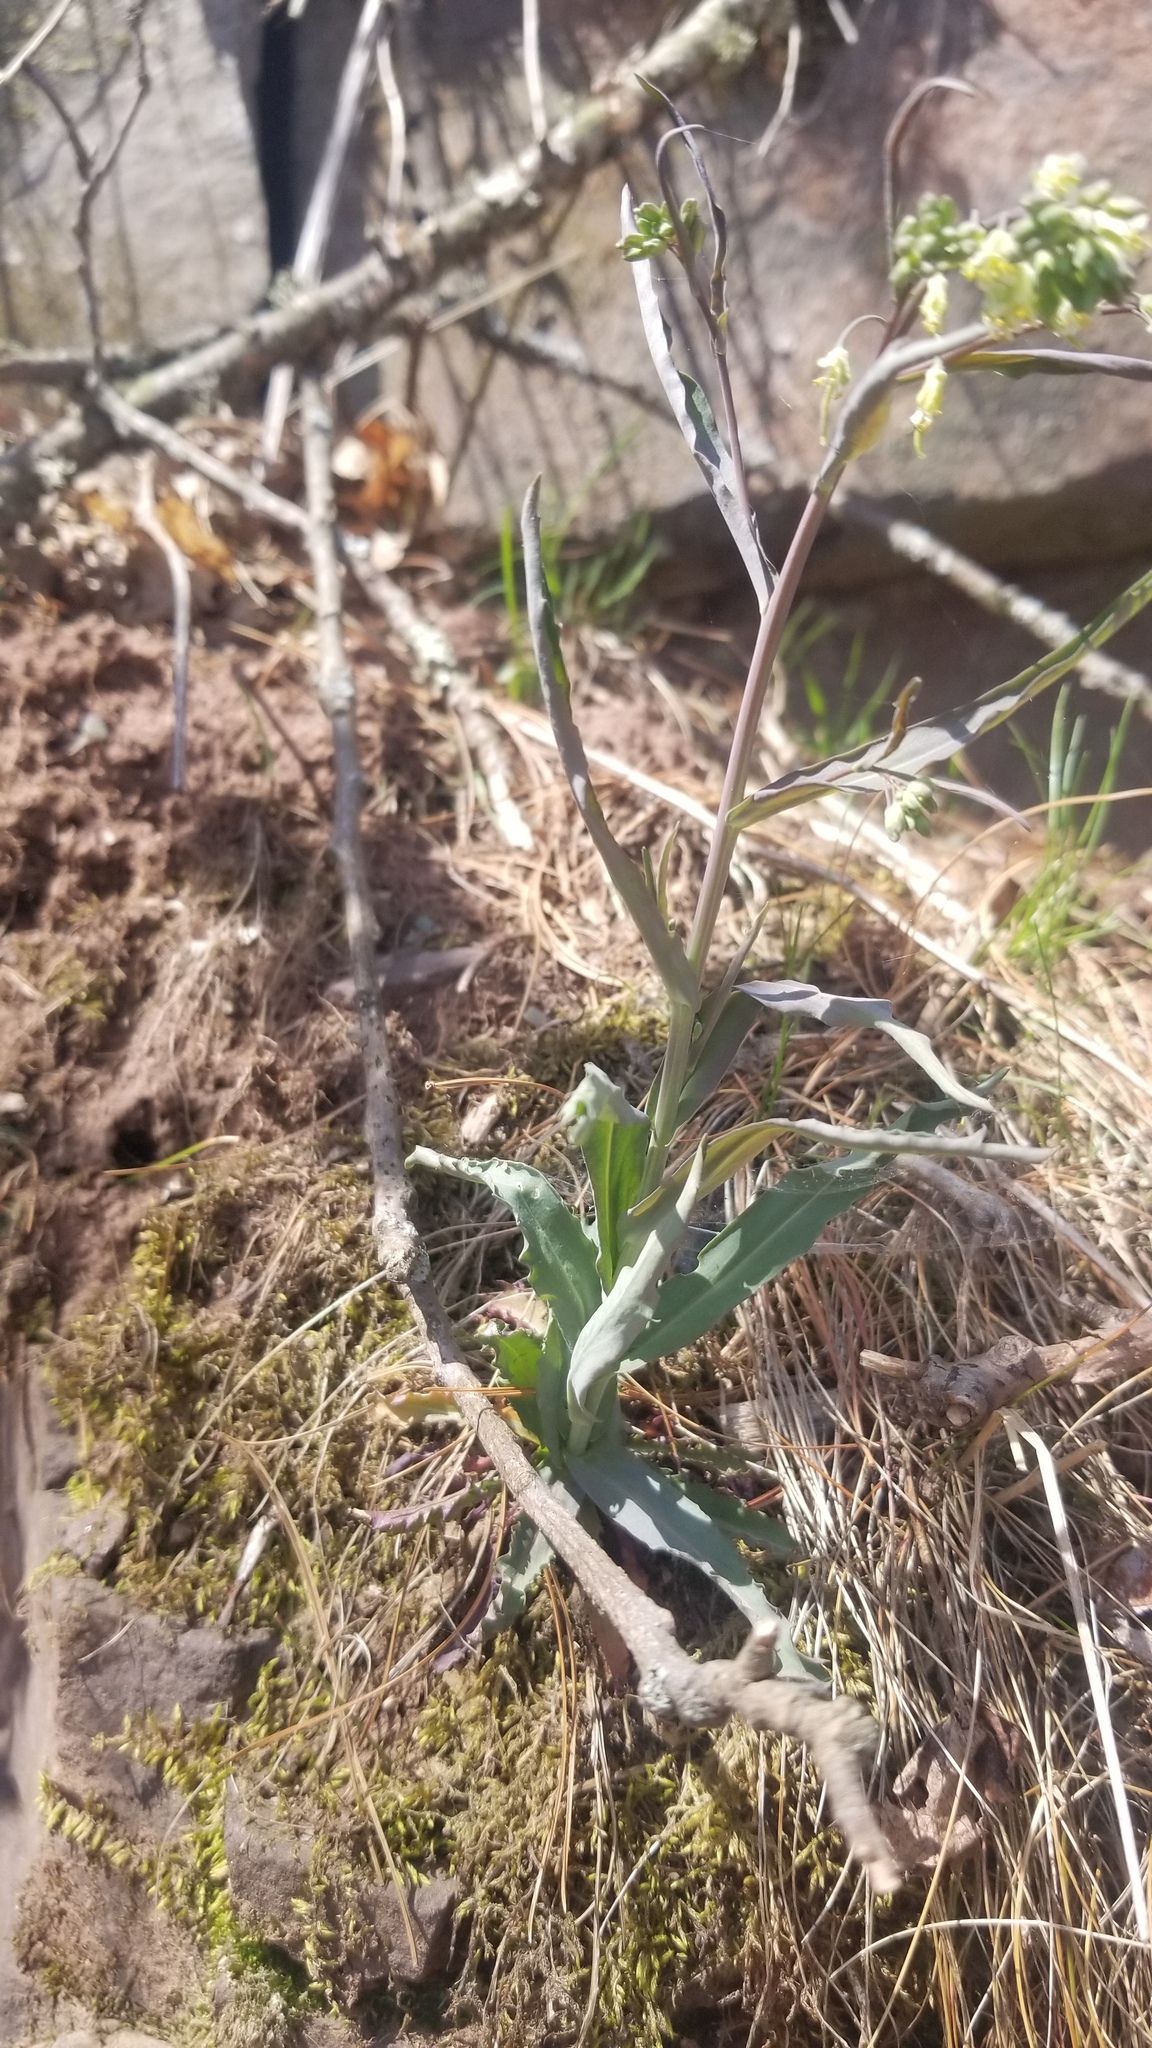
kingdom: Plantae
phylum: Tracheophyta
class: Magnoliopsida
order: Brassicales
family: Brassicaceae
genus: Borodinia
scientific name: Borodinia laevigata
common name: Smooth rockcress
